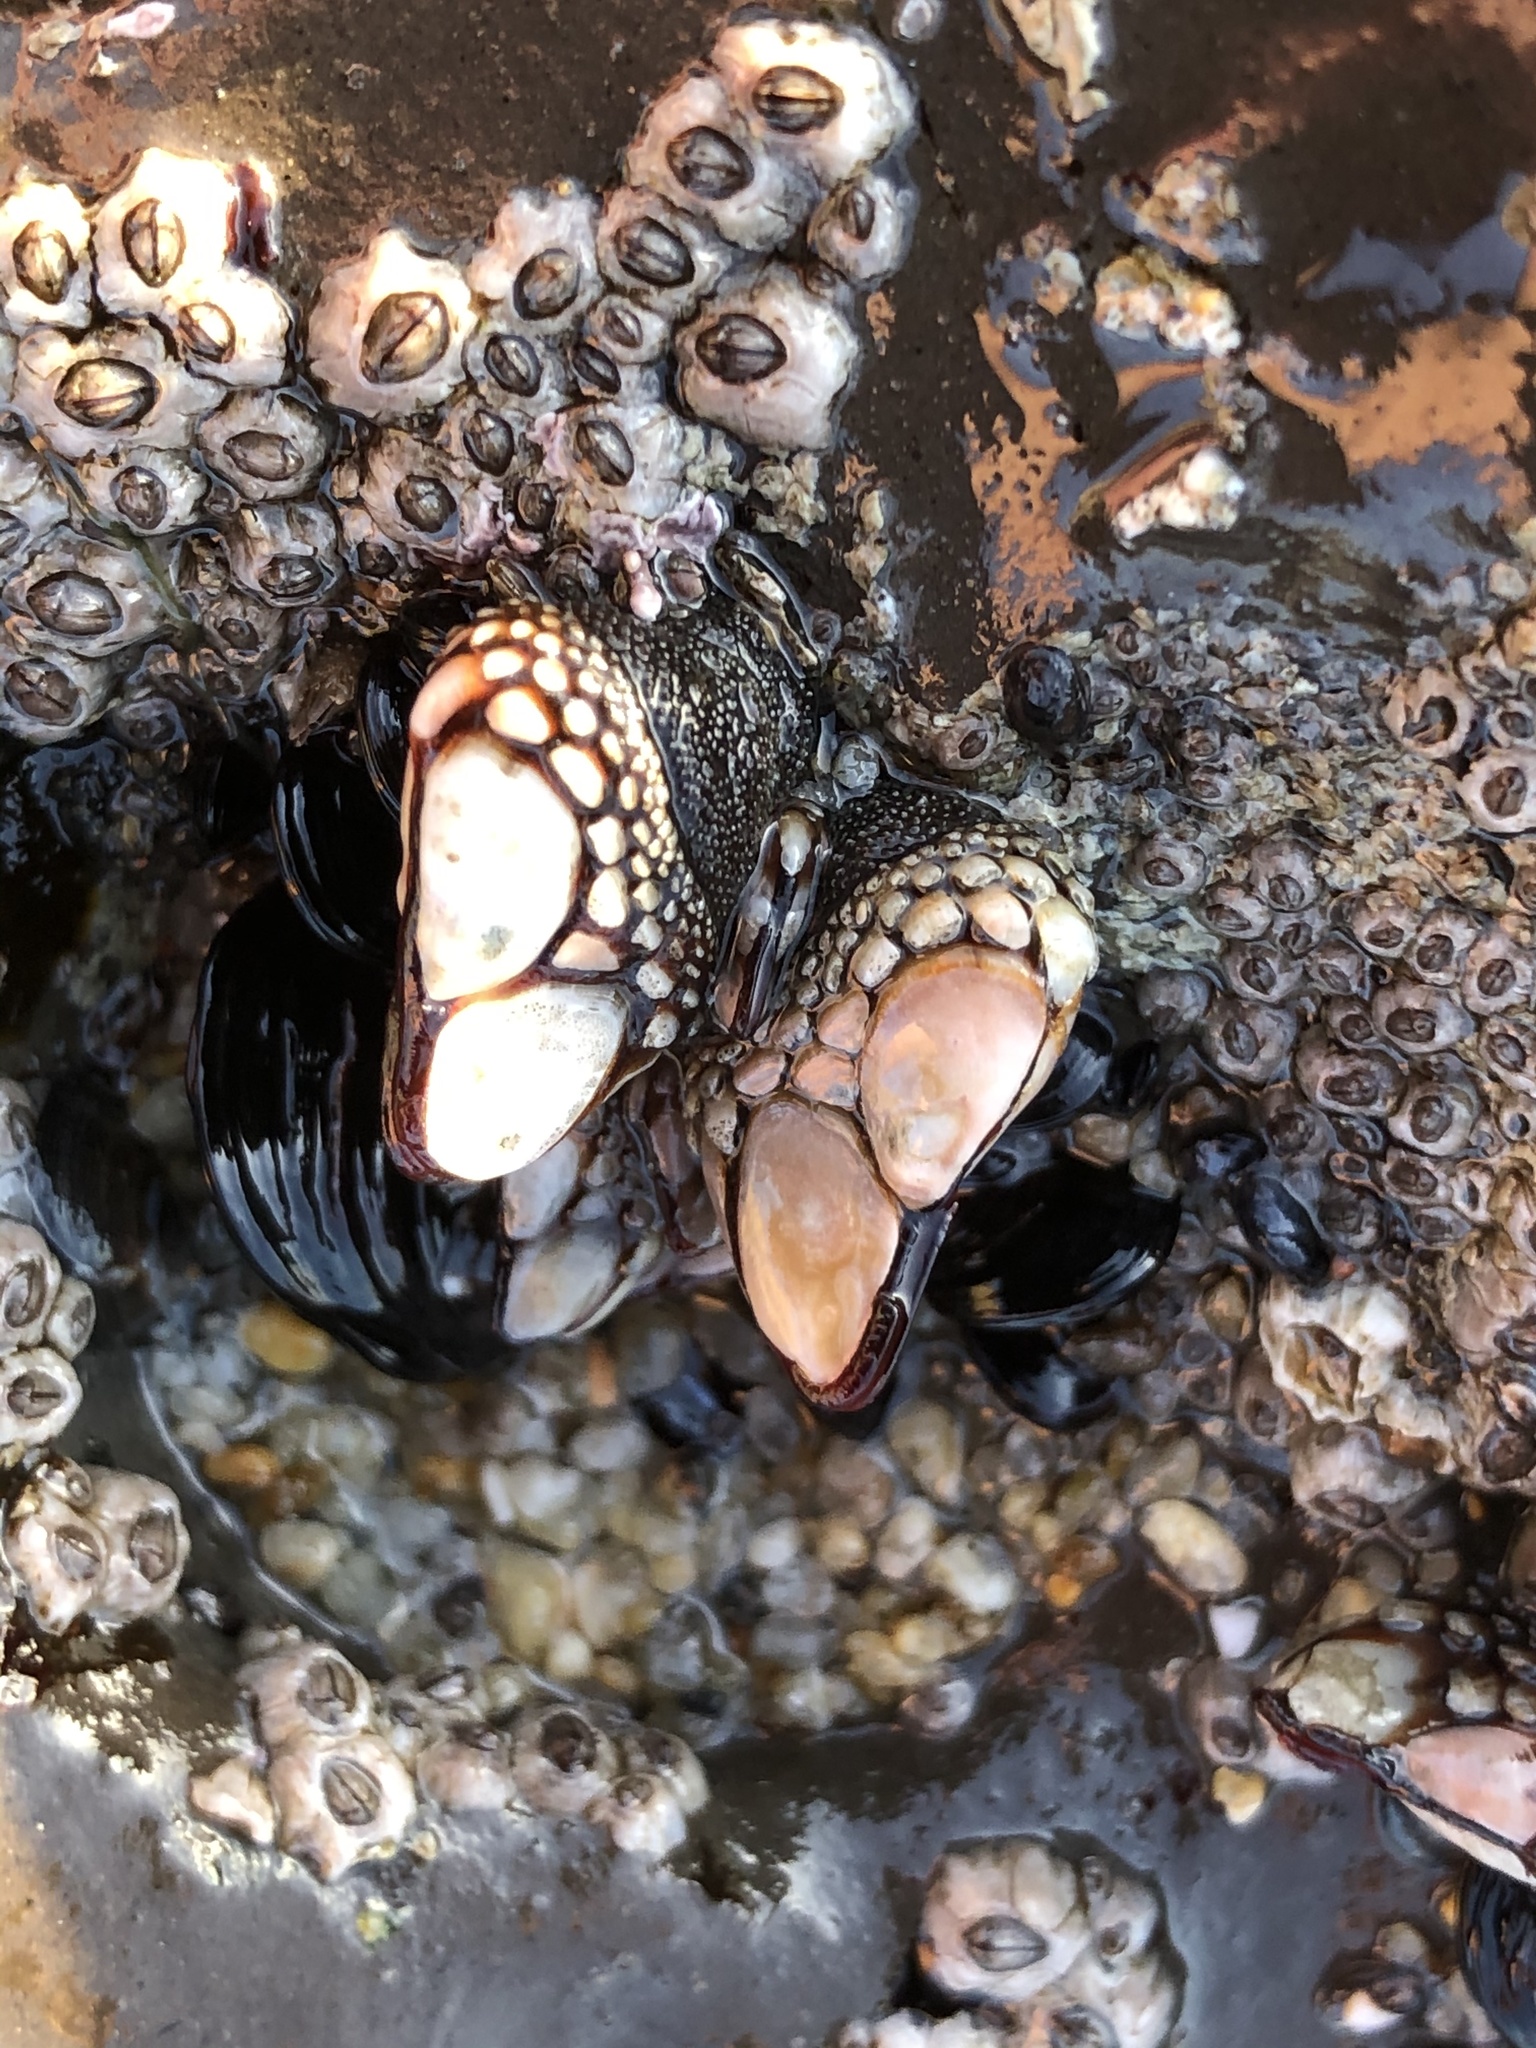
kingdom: Animalia
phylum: Arthropoda
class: Maxillopoda
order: Pedunculata
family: Pollicipedidae
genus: Pollicipes
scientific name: Pollicipes polymerus
